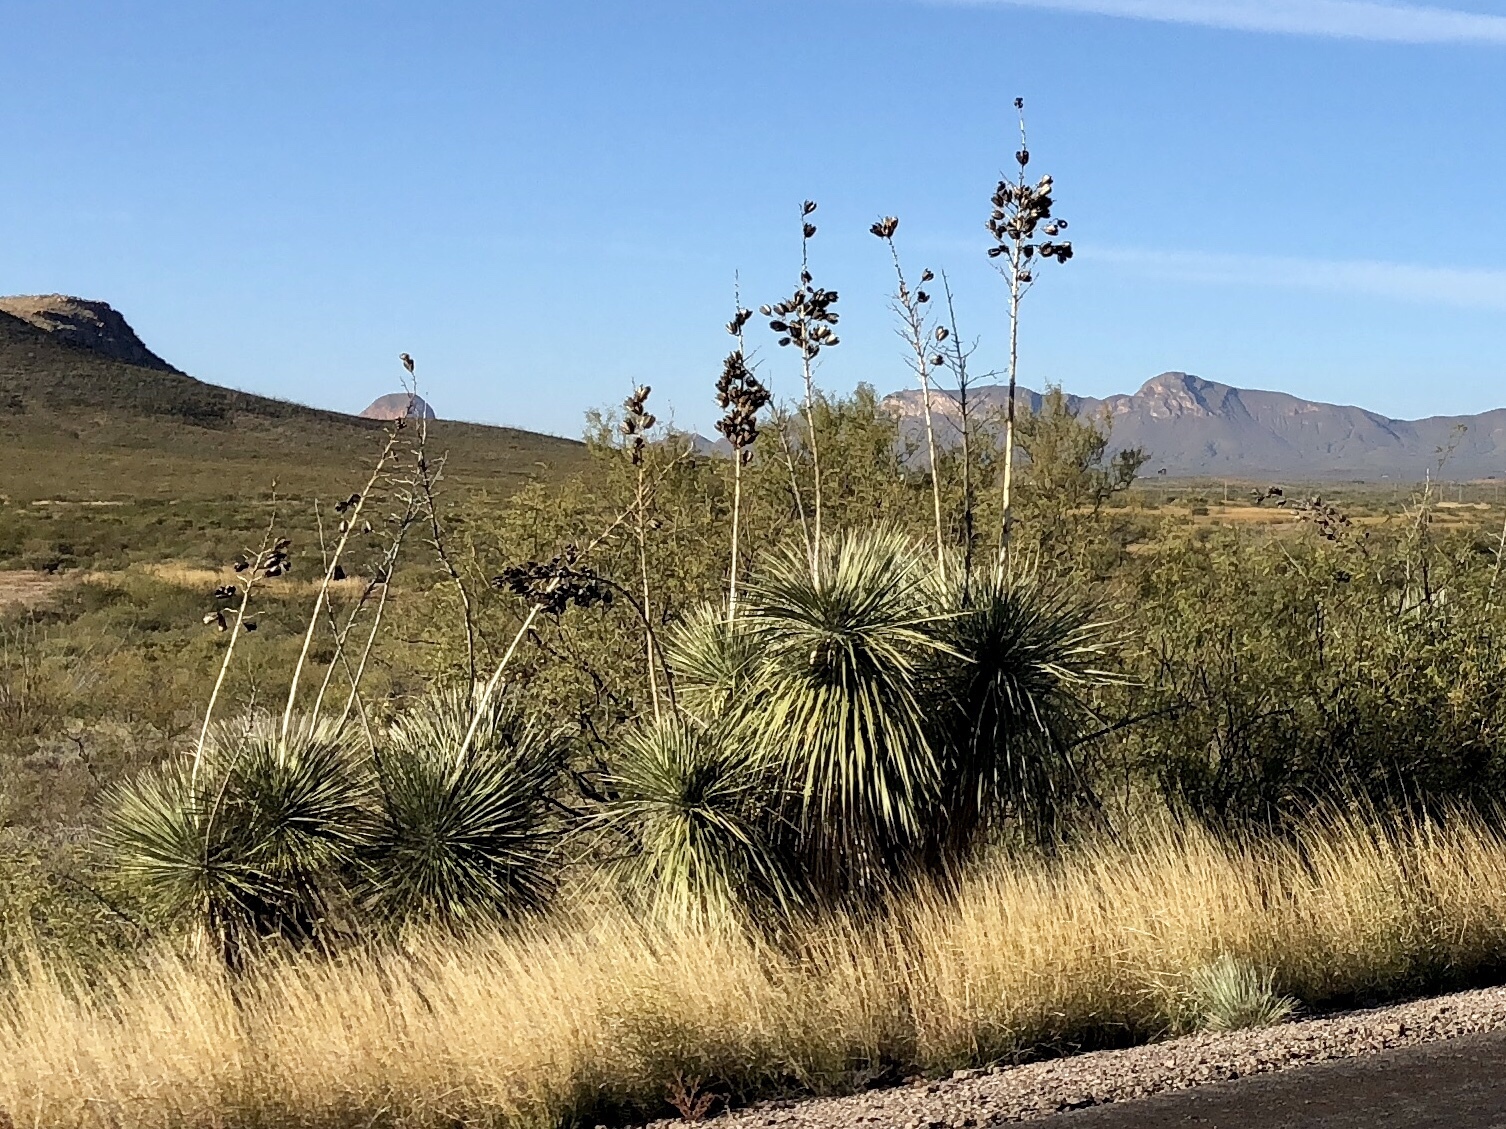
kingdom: Plantae
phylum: Tracheophyta
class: Liliopsida
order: Asparagales
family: Asparagaceae
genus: Yucca
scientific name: Yucca elata
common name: Palmella
